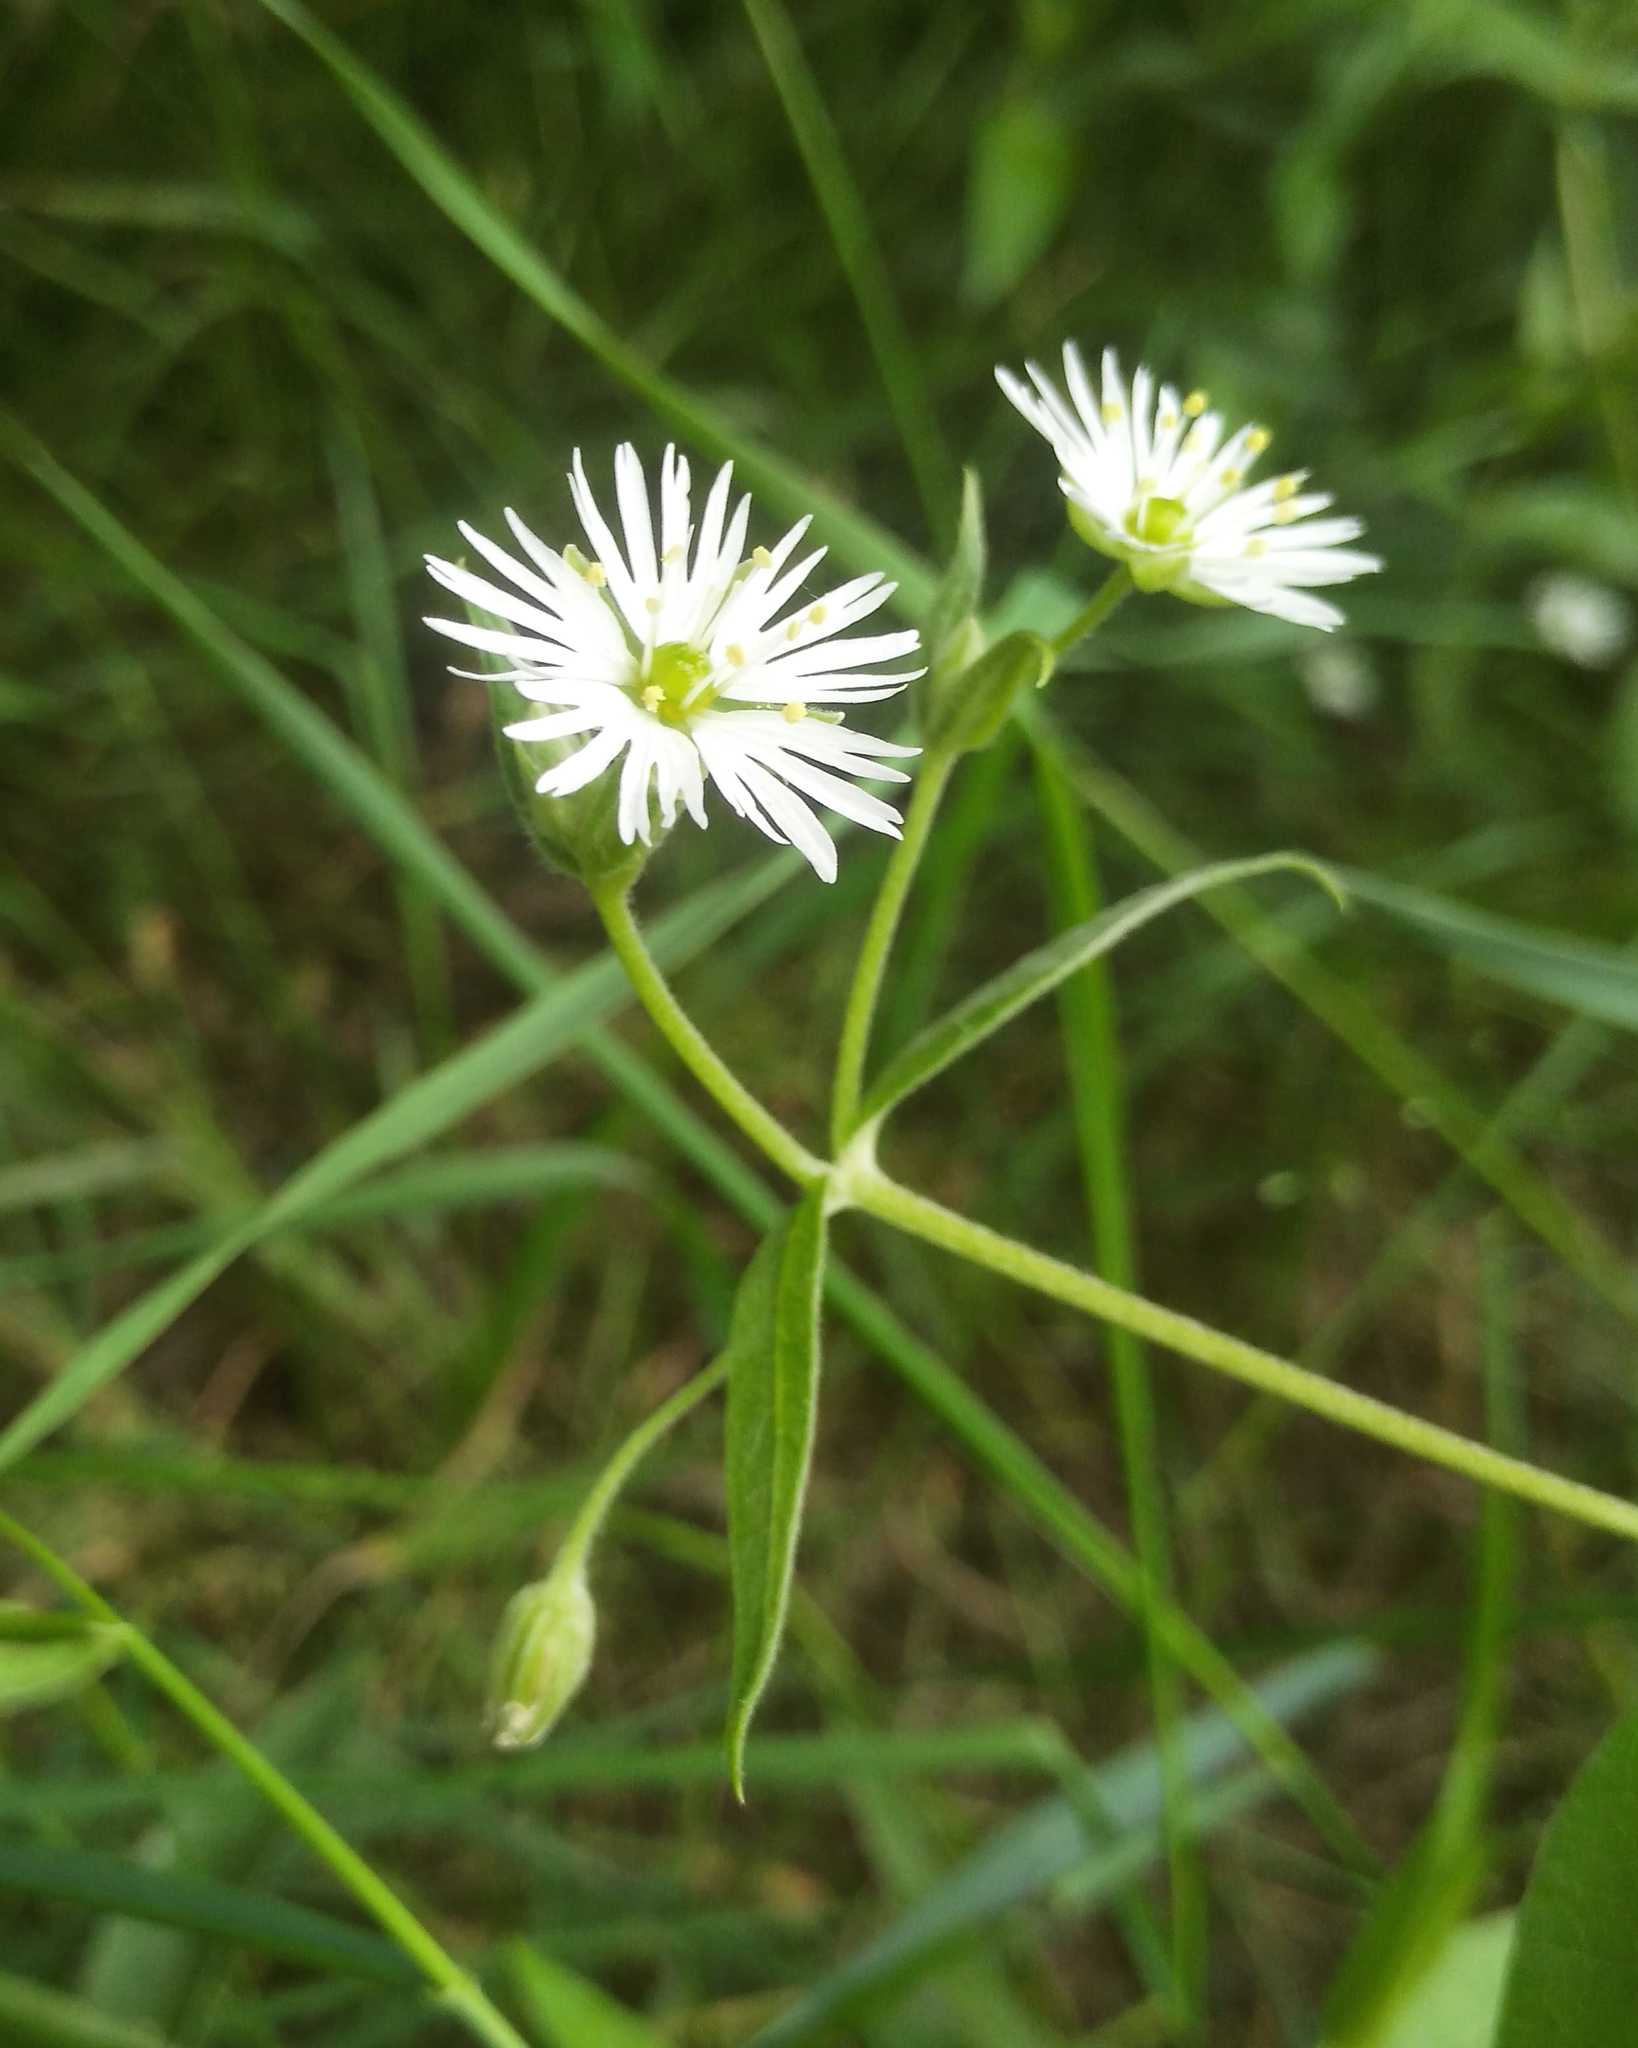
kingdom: Plantae
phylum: Tracheophyta
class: Magnoliopsida
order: Caryophyllales
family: Caryophyllaceae
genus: Stellaria
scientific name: Stellaria radians
